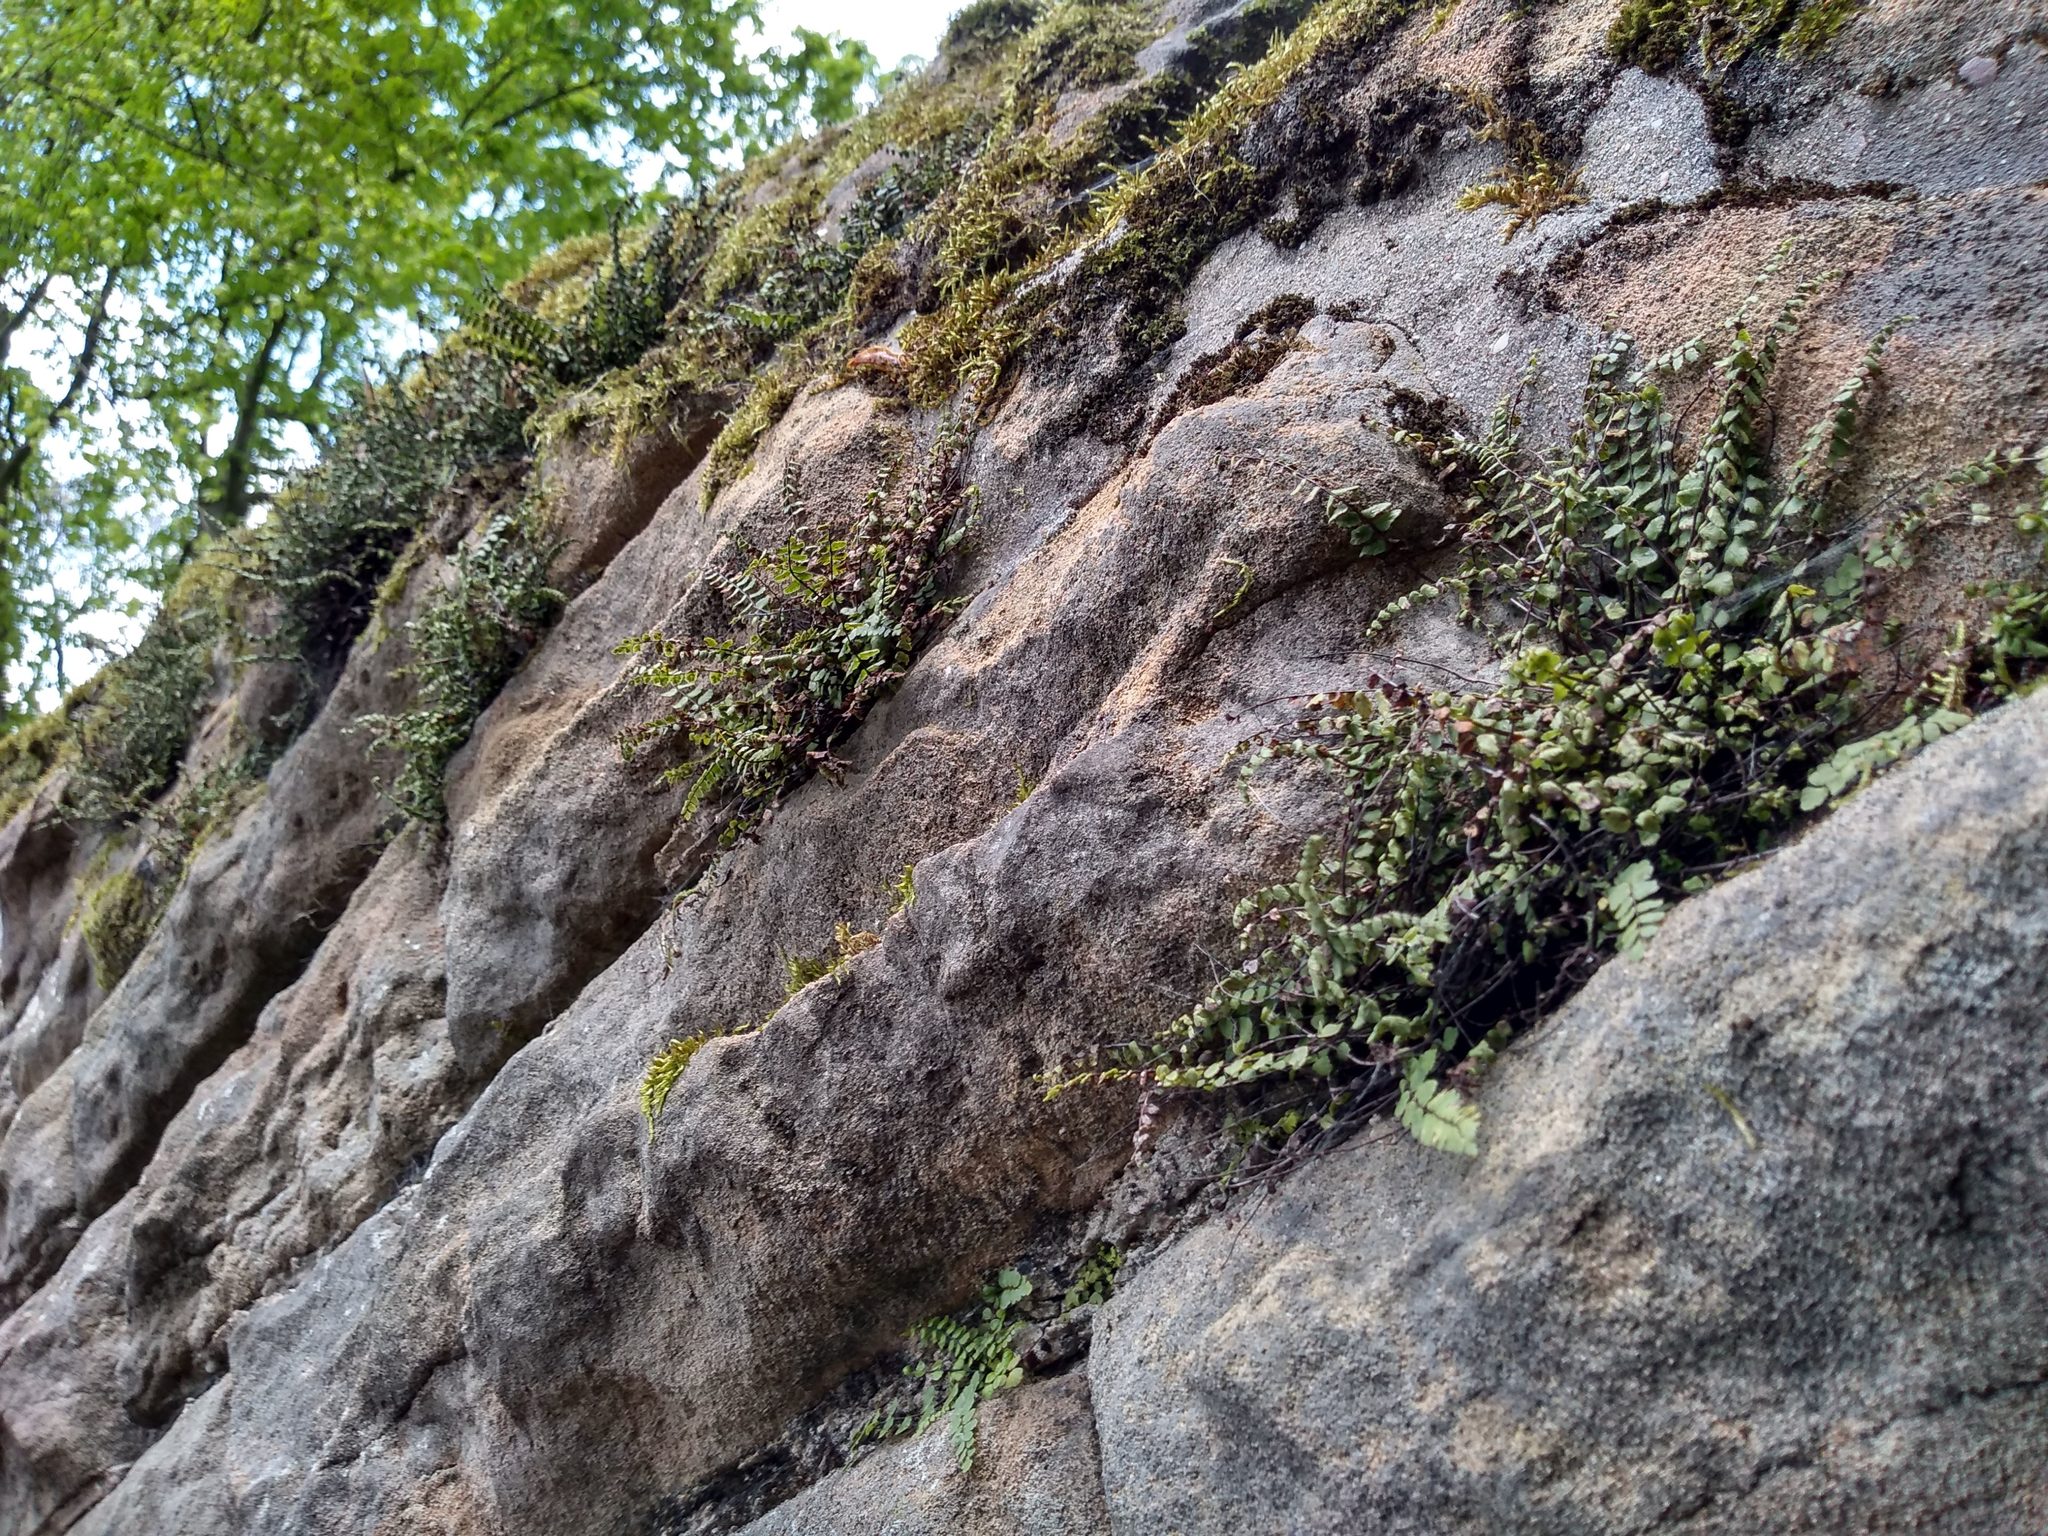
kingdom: Plantae
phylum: Tracheophyta
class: Polypodiopsida
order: Polypodiales
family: Aspleniaceae
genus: Asplenium
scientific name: Asplenium trichomanes
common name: Maidenhair spleenwort
